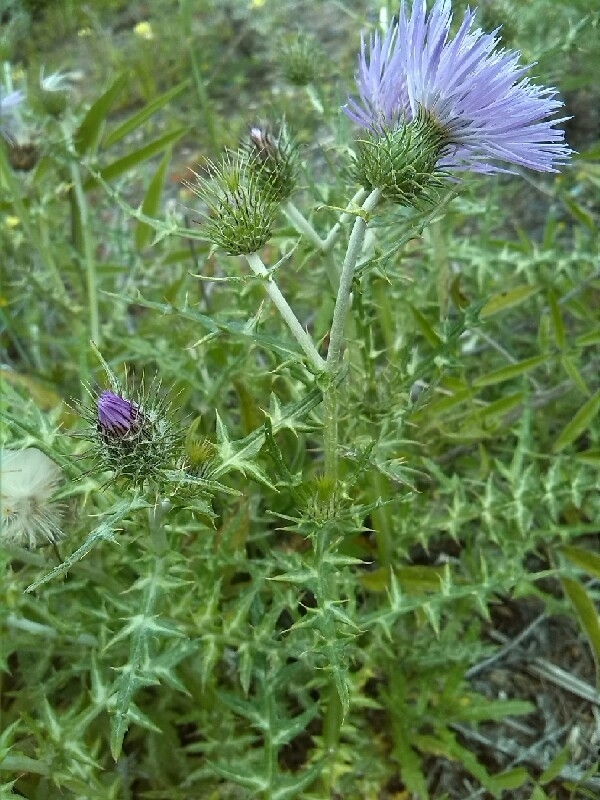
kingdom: Plantae
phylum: Tracheophyta
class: Magnoliopsida
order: Asterales
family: Asteraceae
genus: Galactites
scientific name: Galactites tomentosa
